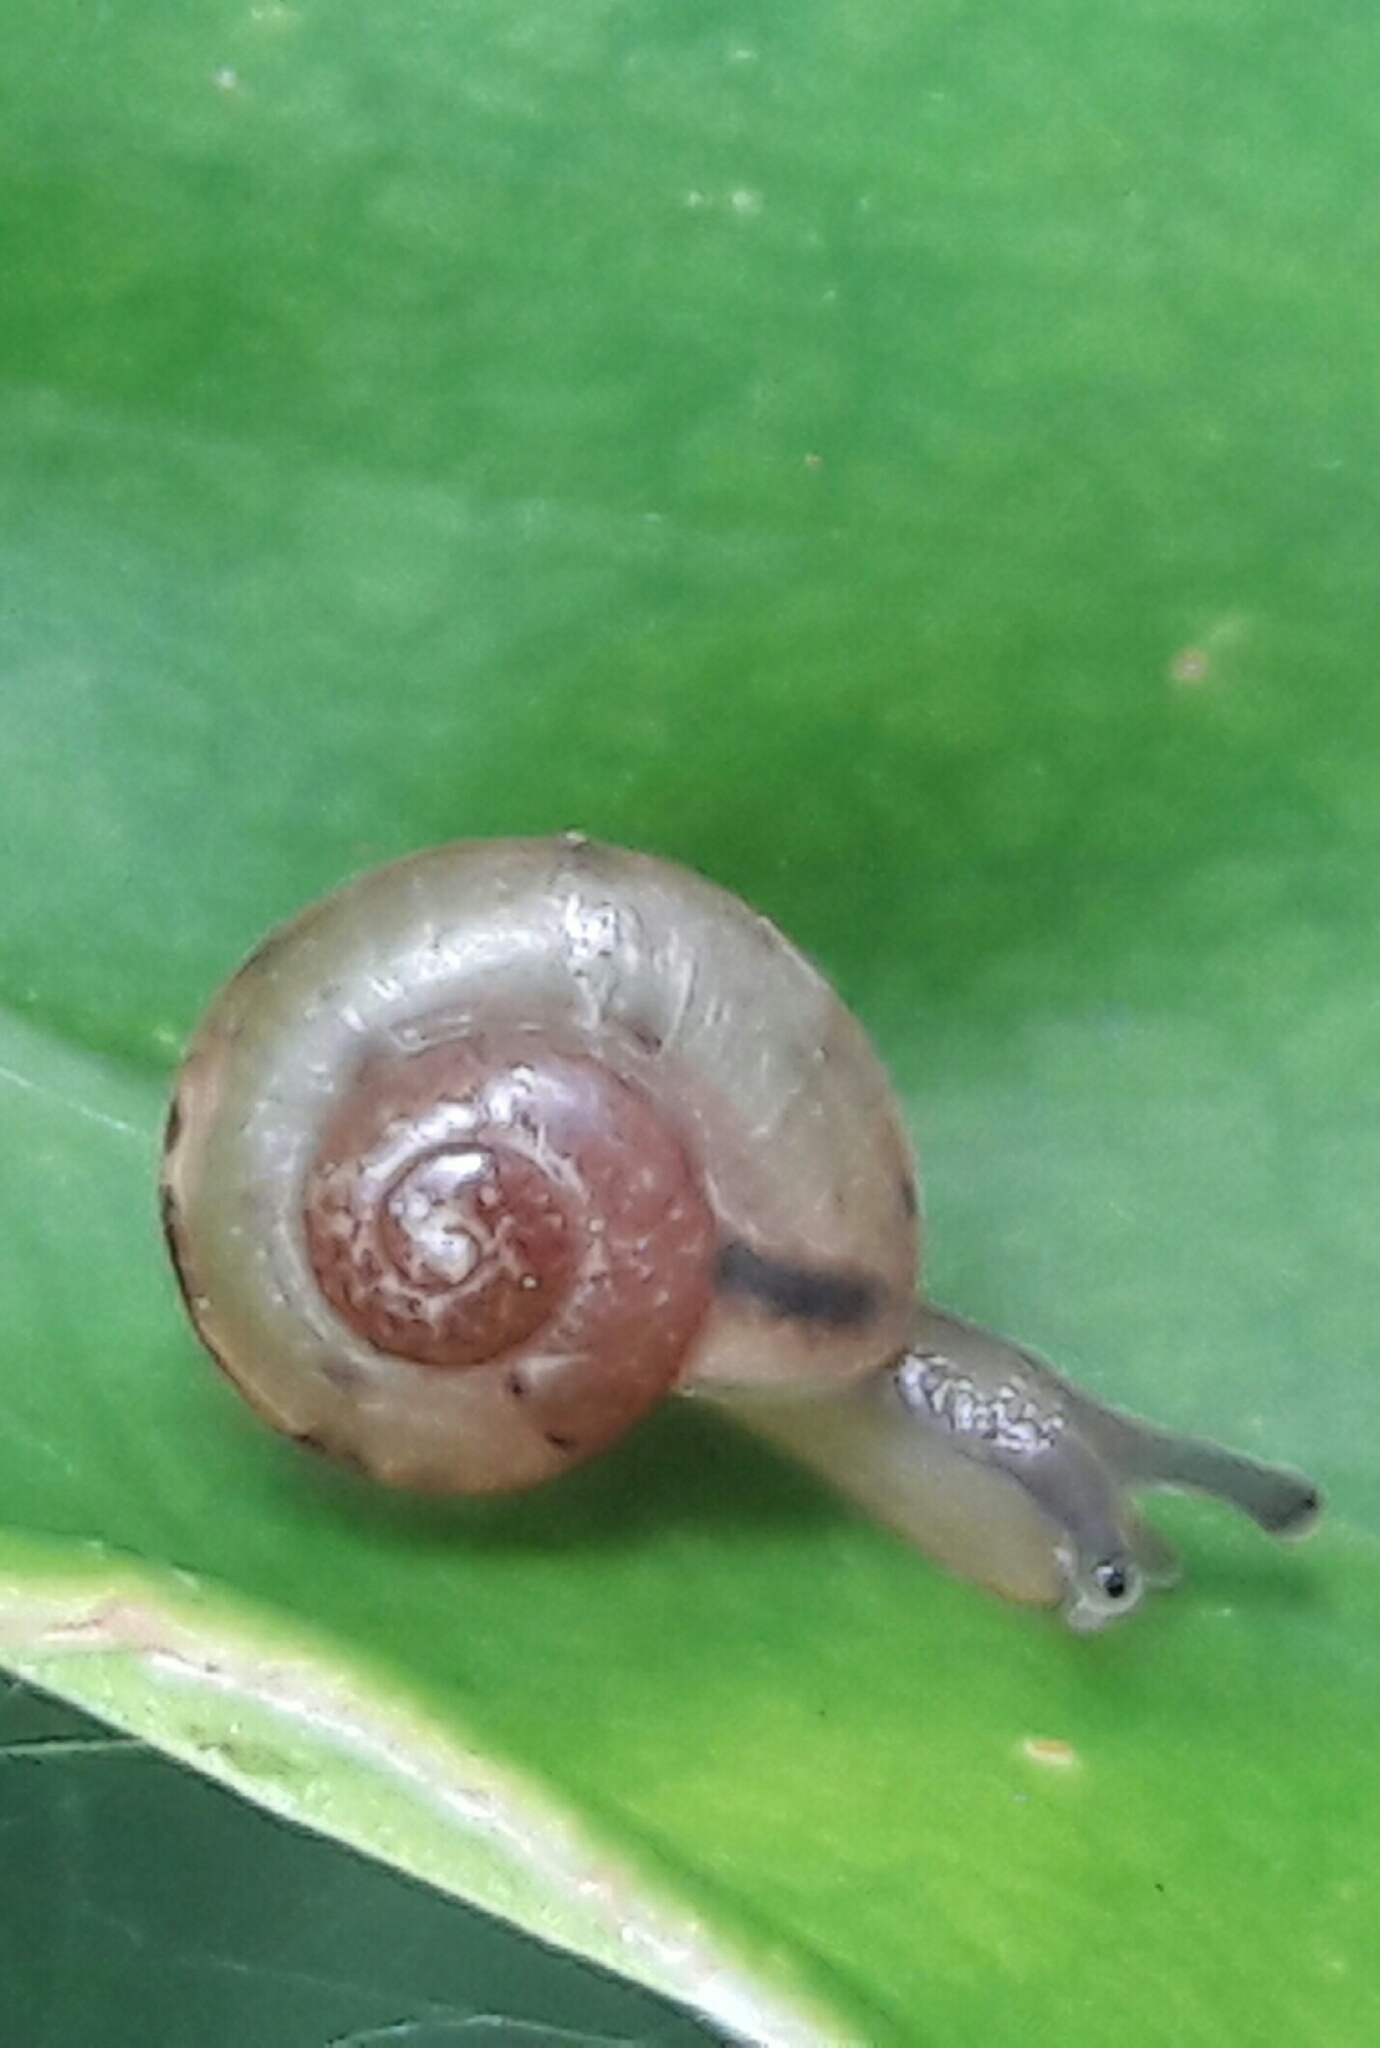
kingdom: Animalia
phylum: Mollusca
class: Gastropoda
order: Stylommatophora
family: Camaenidae
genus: Bradybaena
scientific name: Bradybaena similaris
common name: Asian trampsnail
